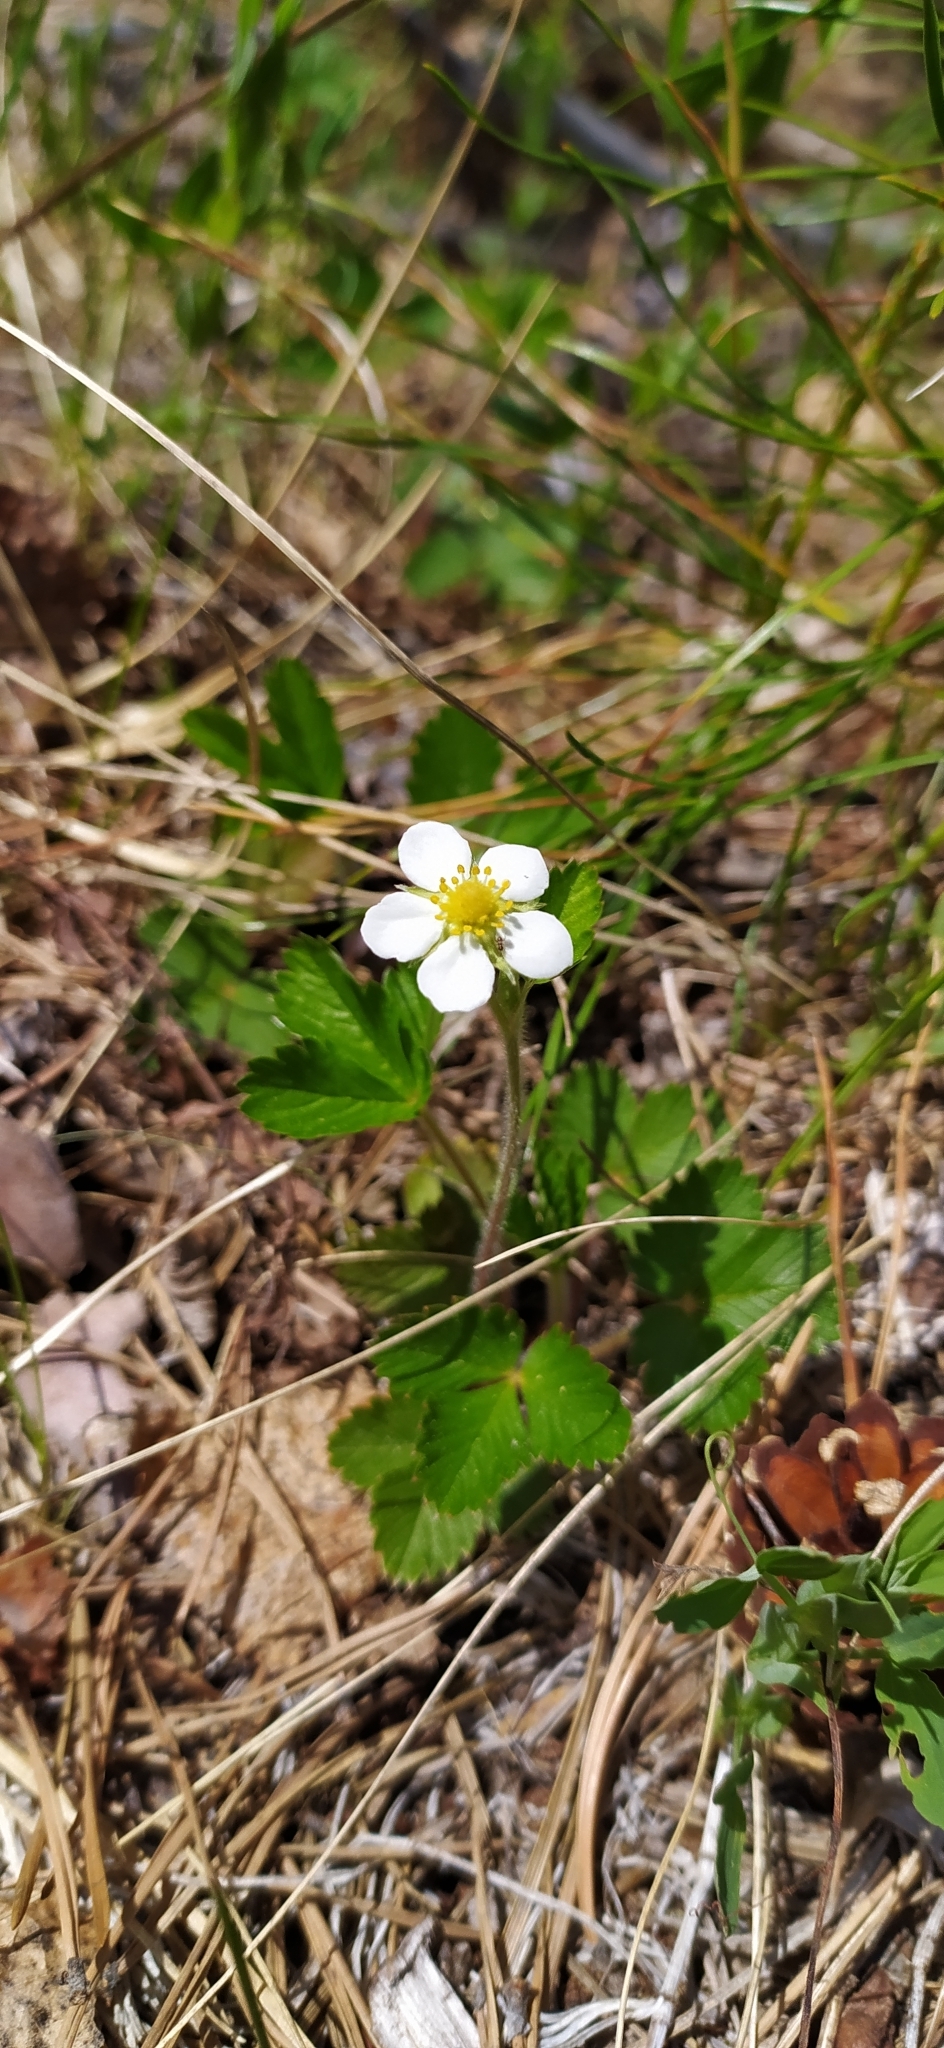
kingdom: Plantae
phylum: Tracheophyta
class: Magnoliopsida
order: Rosales
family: Rosaceae
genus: Fragaria
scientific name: Fragaria vesca
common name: Wild strawberry
